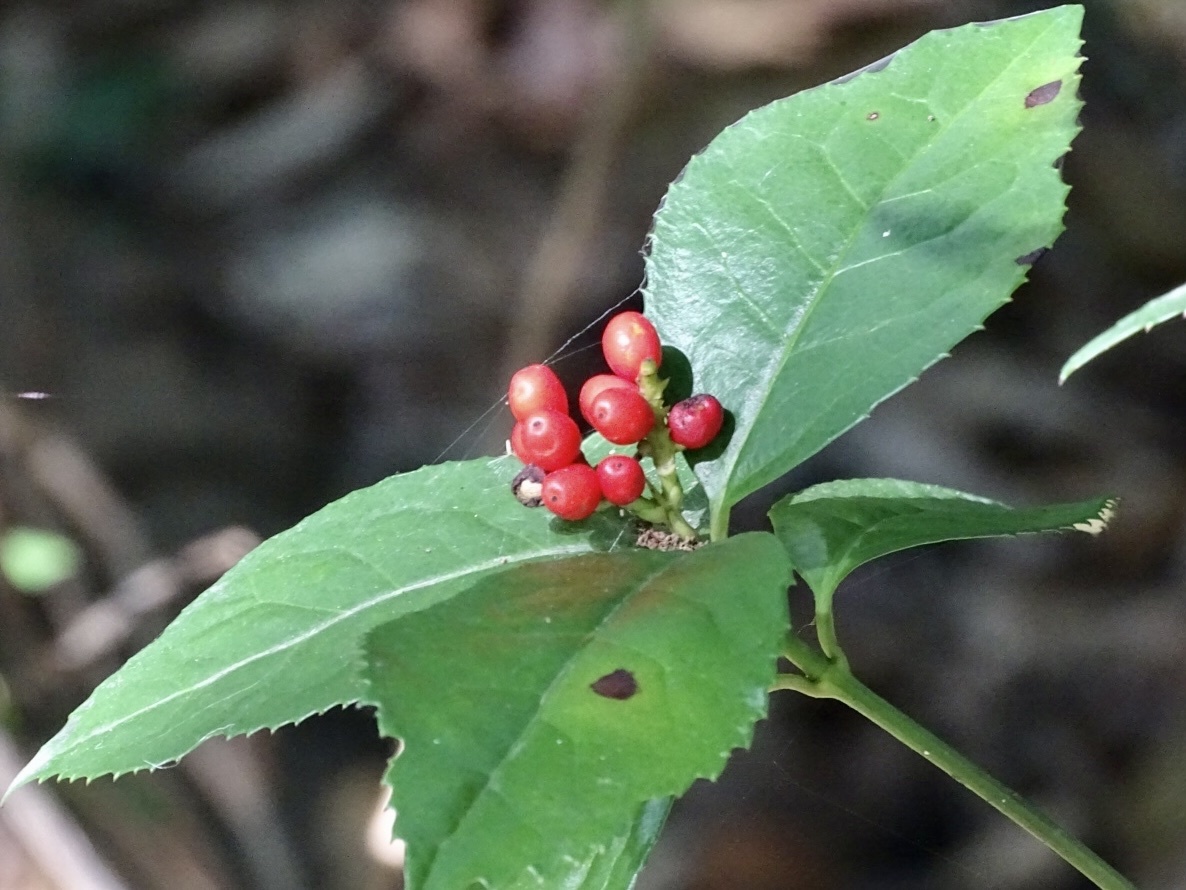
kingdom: Plantae
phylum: Tracheophyta
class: Magnoliopsida
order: Chloranthales
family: Chloranthaceae
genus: Sarcandra
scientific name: Sarcandra glabra
